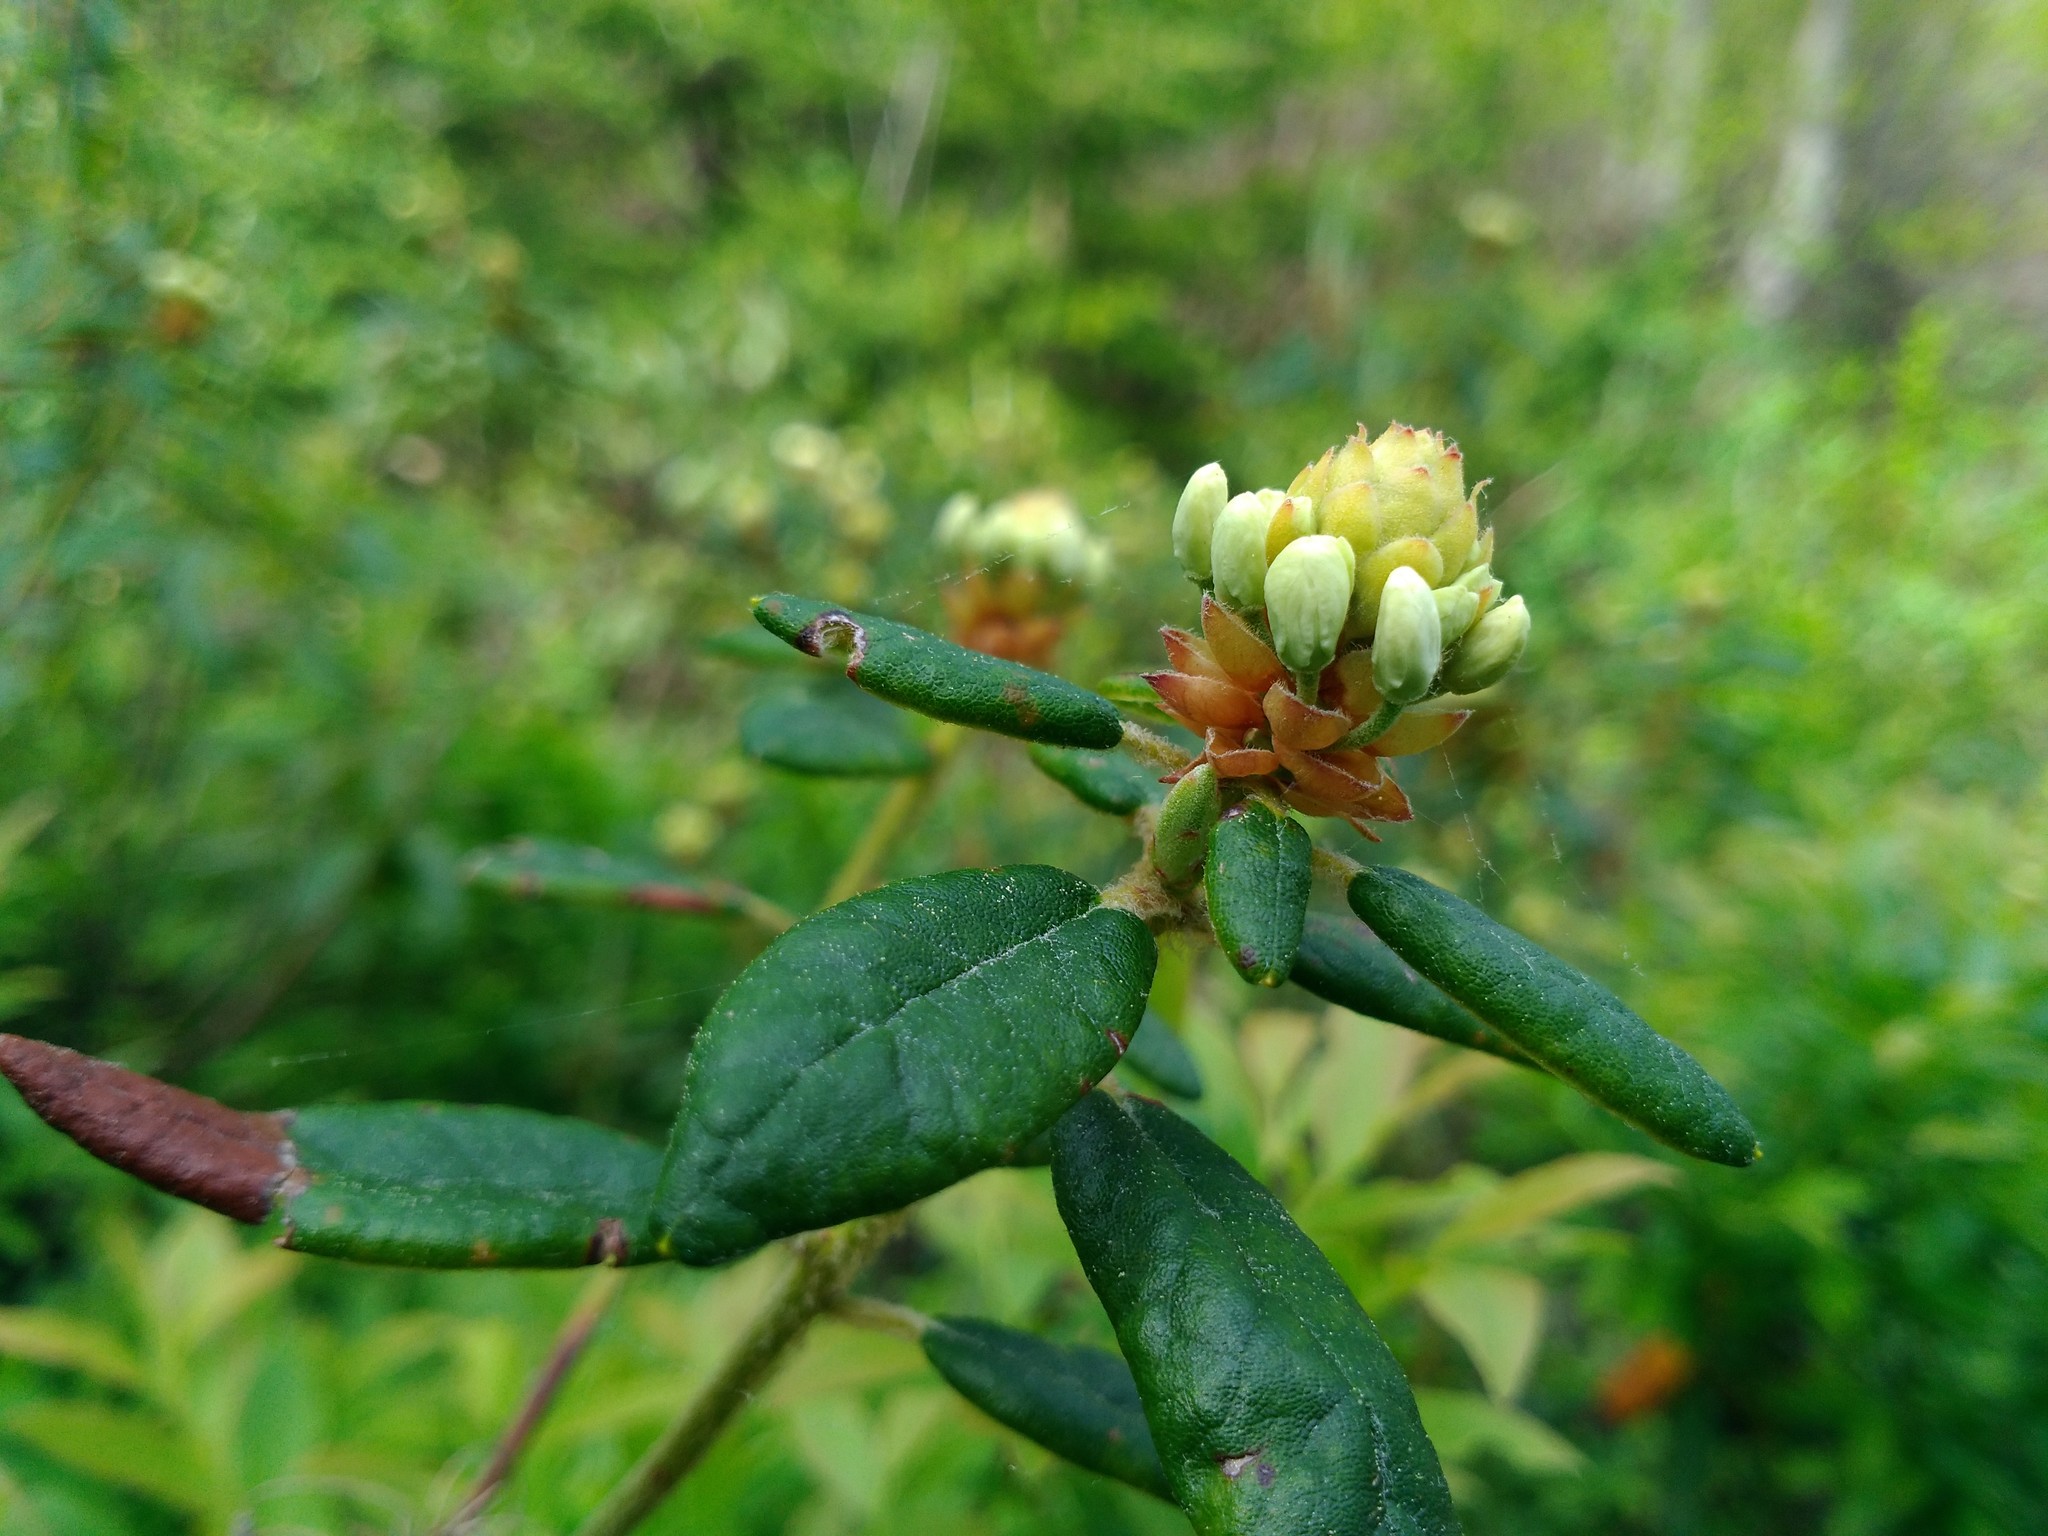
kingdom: Plantae
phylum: Tracheophyta
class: Magnoliopsida
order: Ericales
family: Ericaceae
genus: Rhododendron
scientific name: Rhododendron groenlandicum
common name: Bog labrador tea
